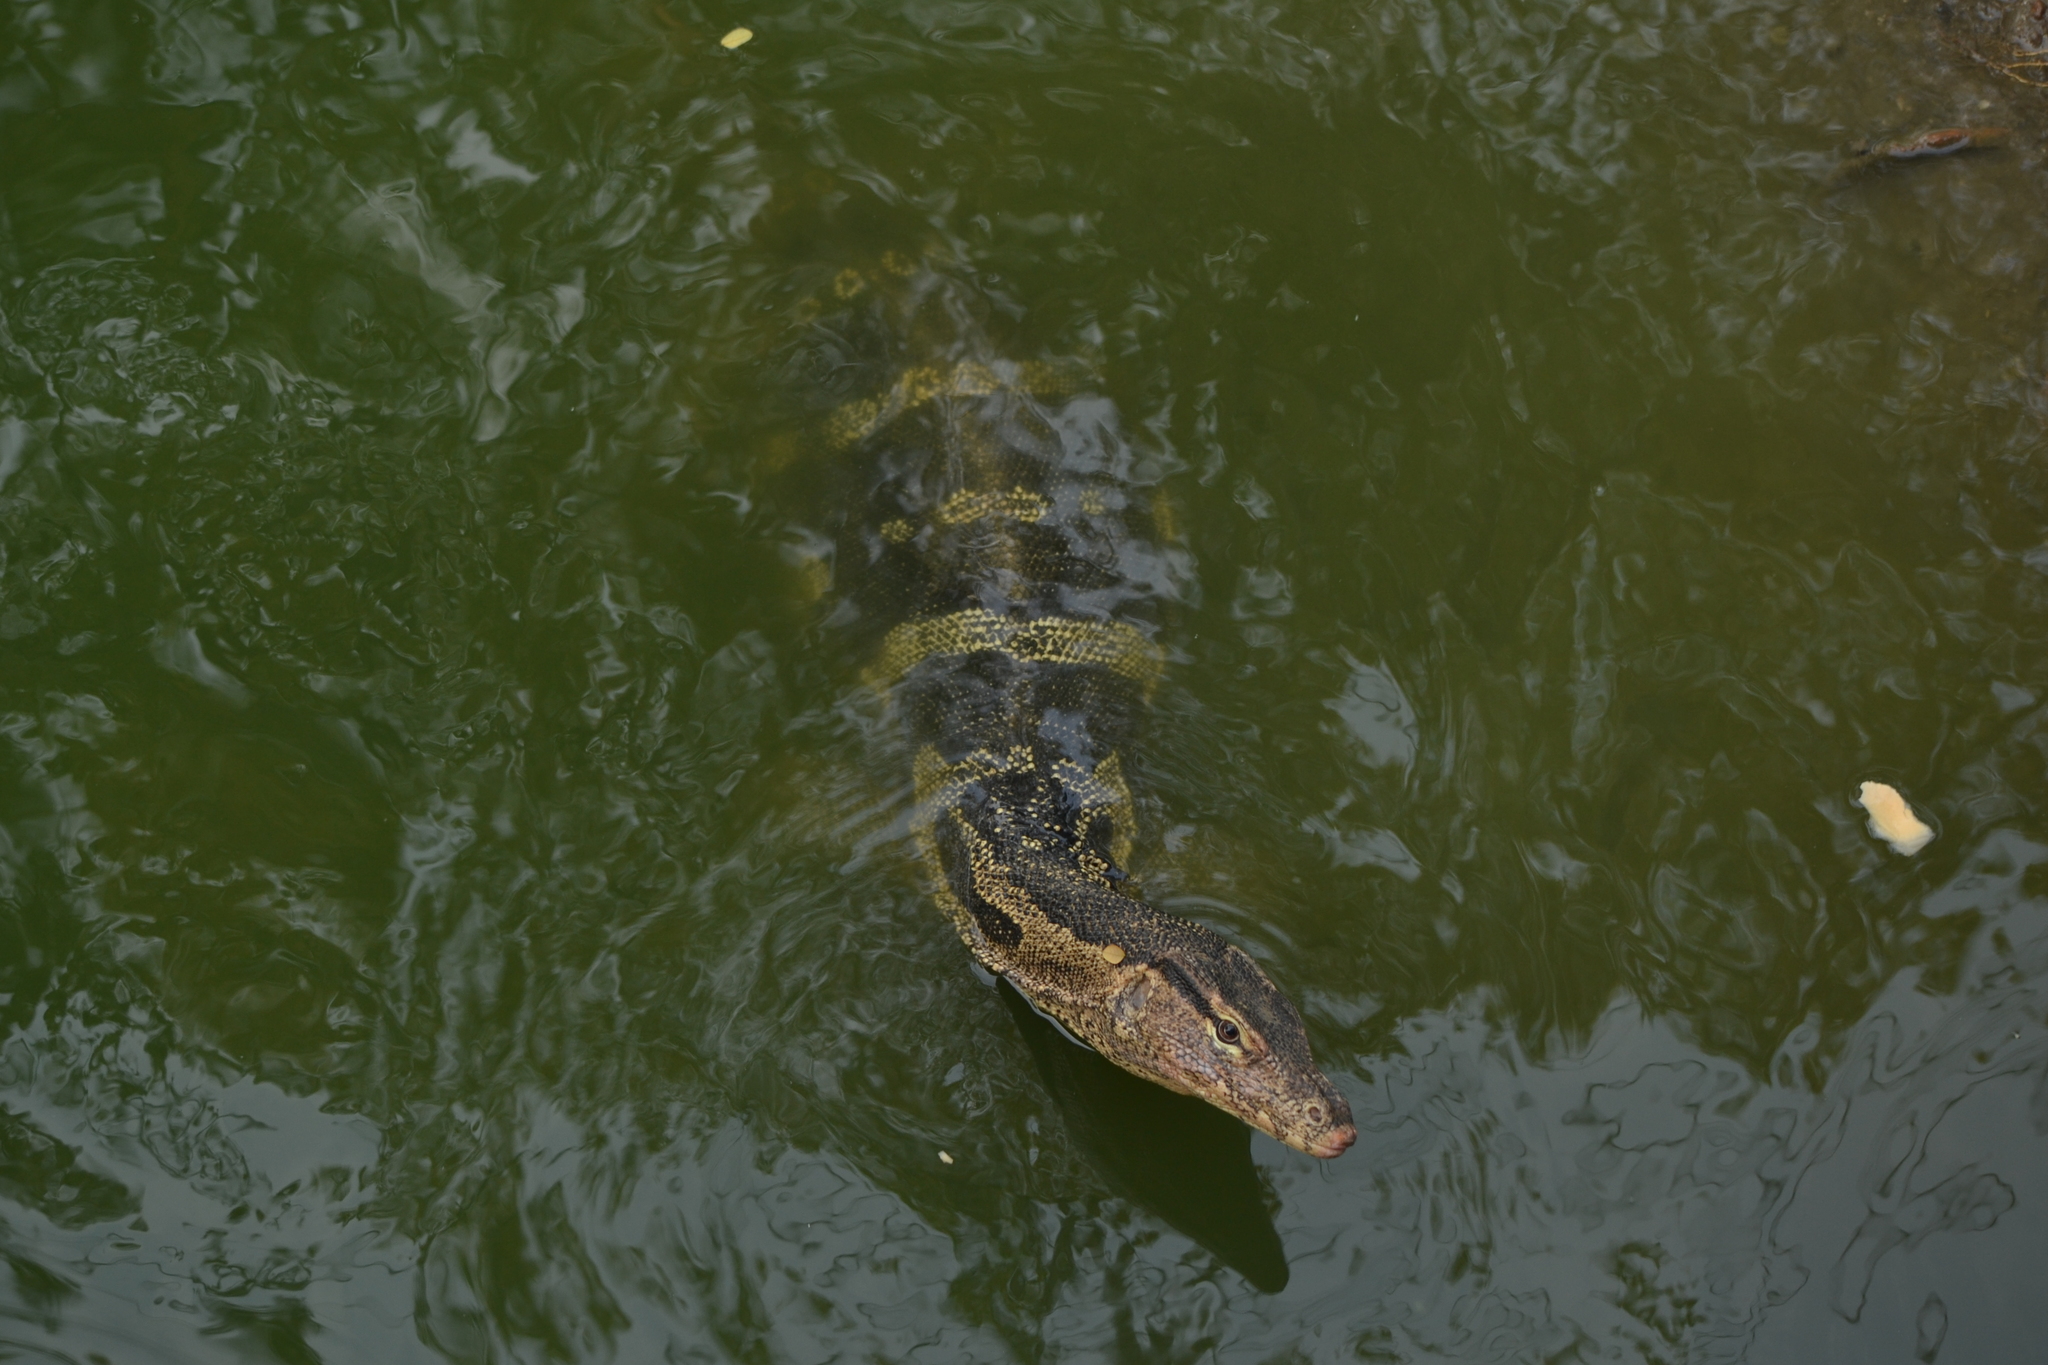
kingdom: Animalia
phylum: Chordata
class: Squamata
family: Varanidae
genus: Varanus
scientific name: Varanus salvator
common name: Common water monitor
